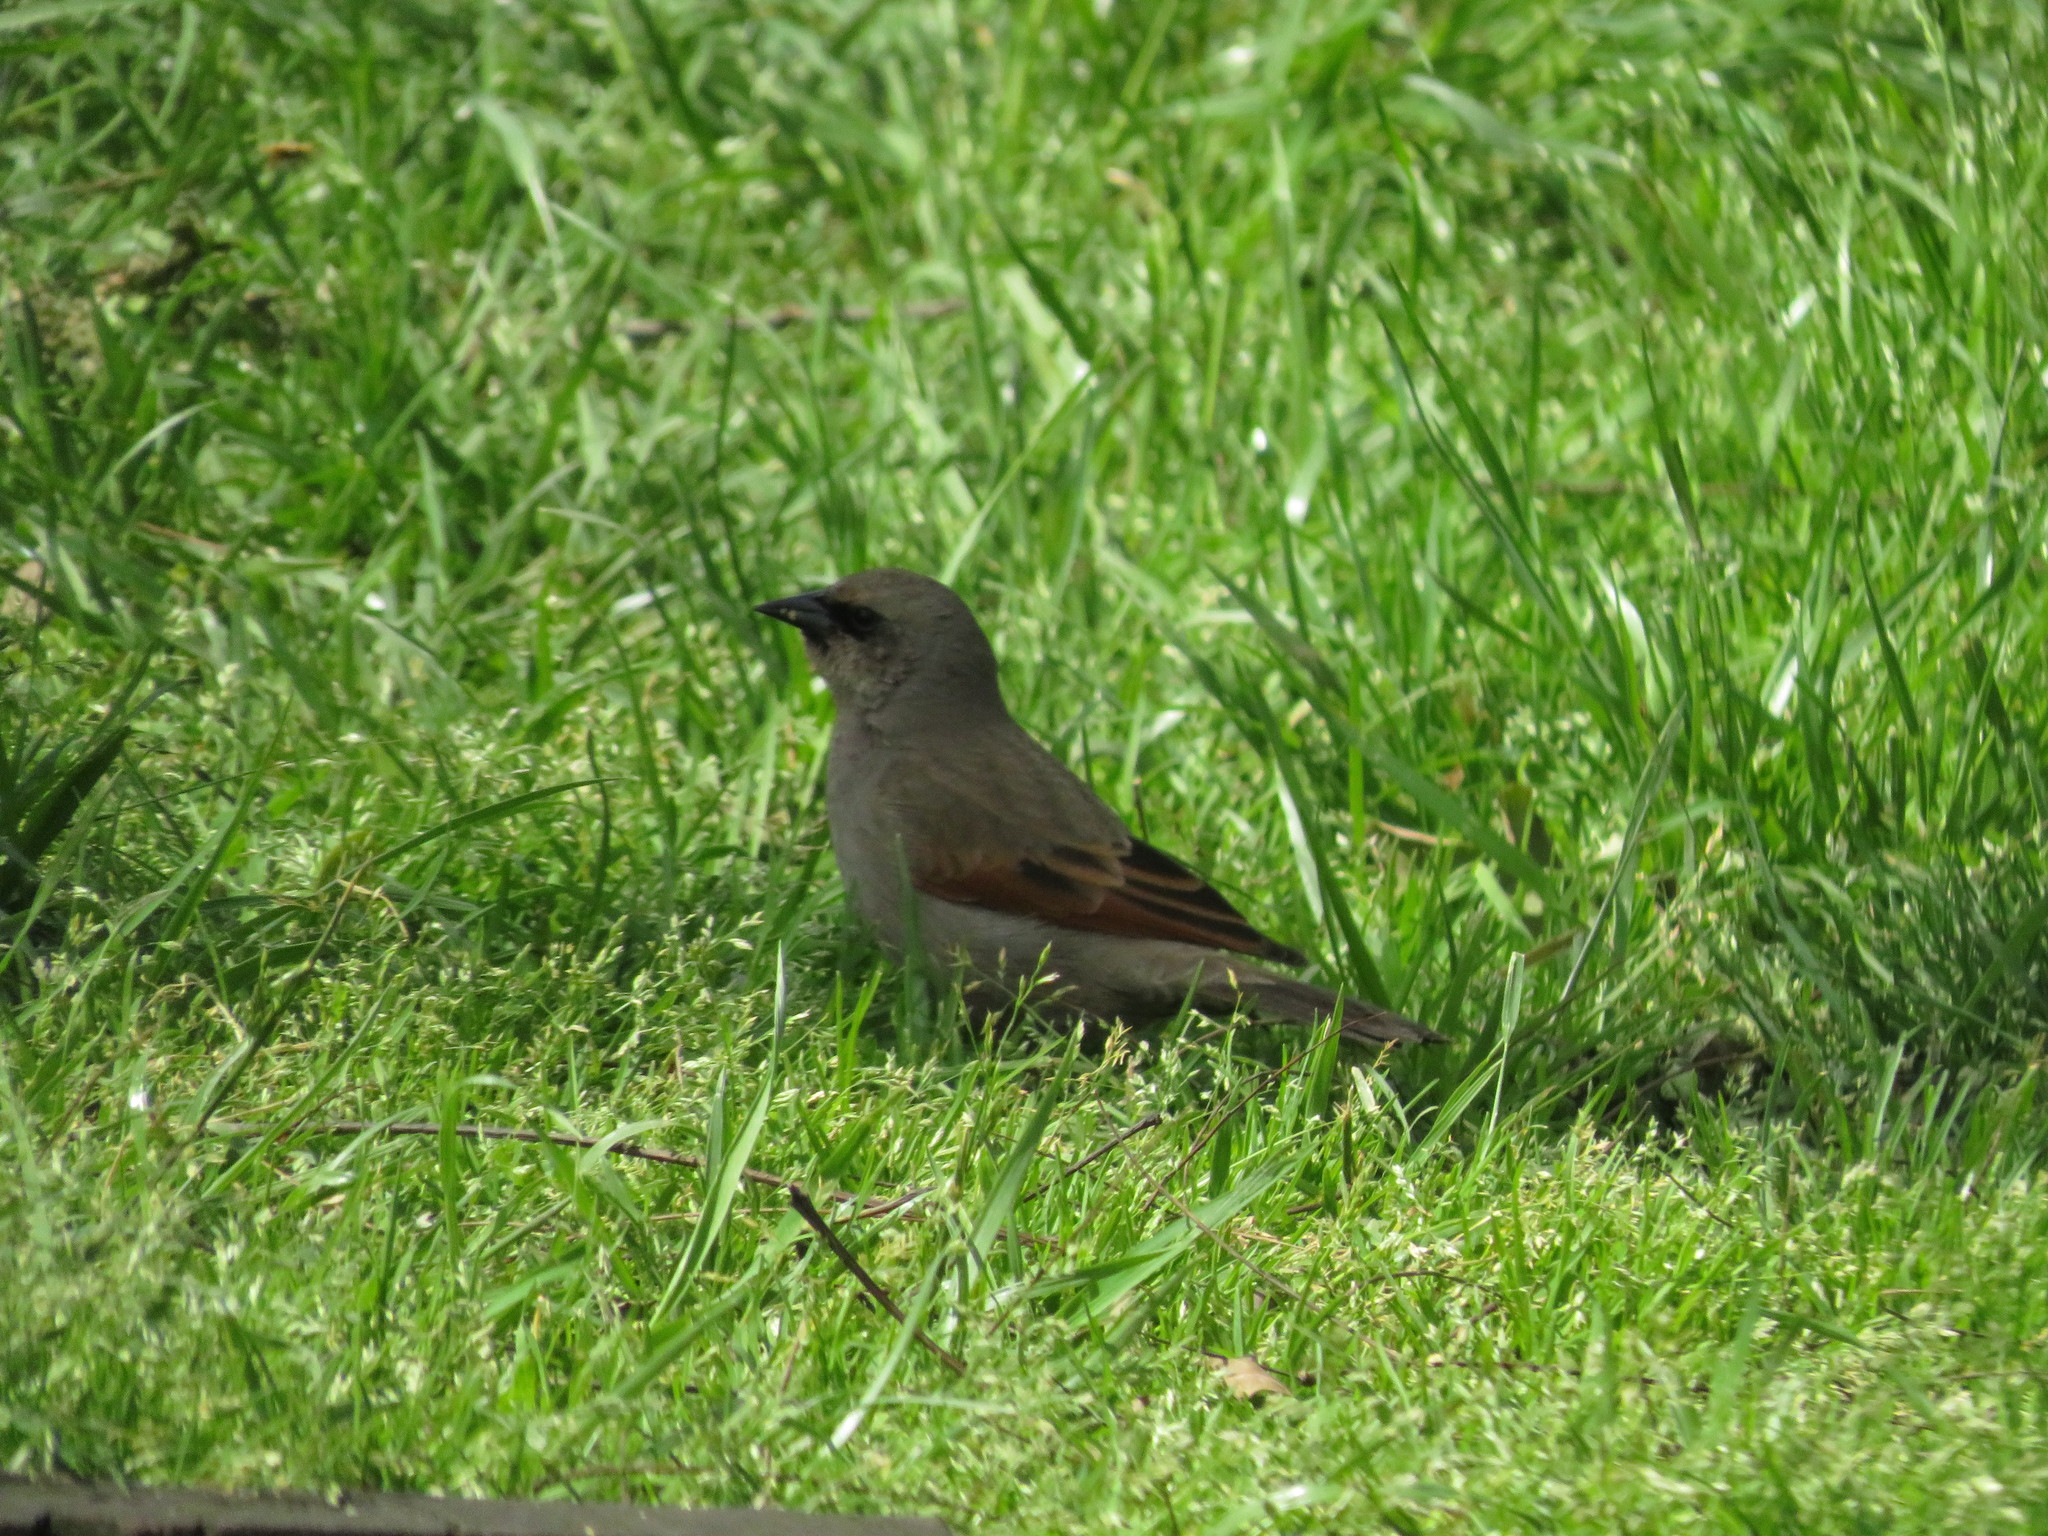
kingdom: Animalia
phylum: Chordata
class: Aves
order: Passeriformes
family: Icteridae
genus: Agelaioides
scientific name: Agelaioides badius
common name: Baywing
